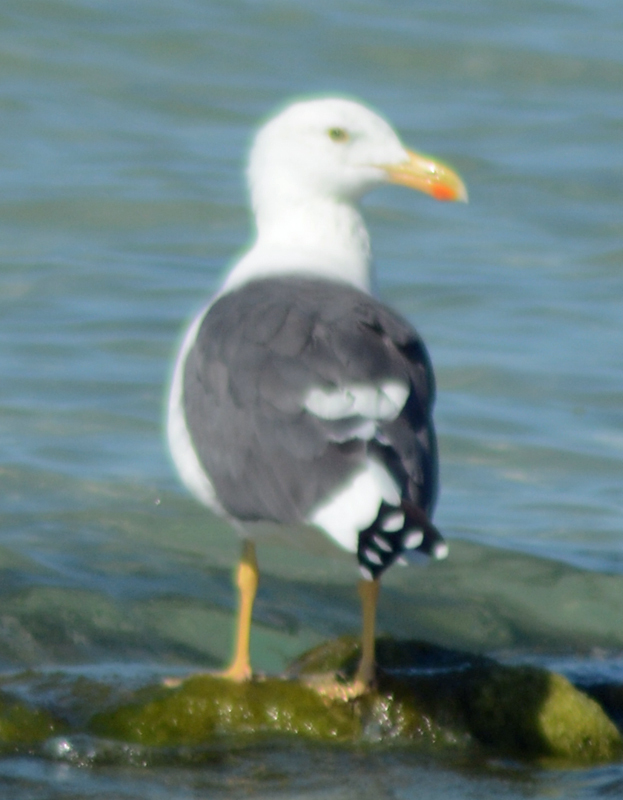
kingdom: Animalia
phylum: Chordata
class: Aves
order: Charadriiformes
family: Laridae
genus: Larus
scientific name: Larus livens
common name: Yellow-footed gull
